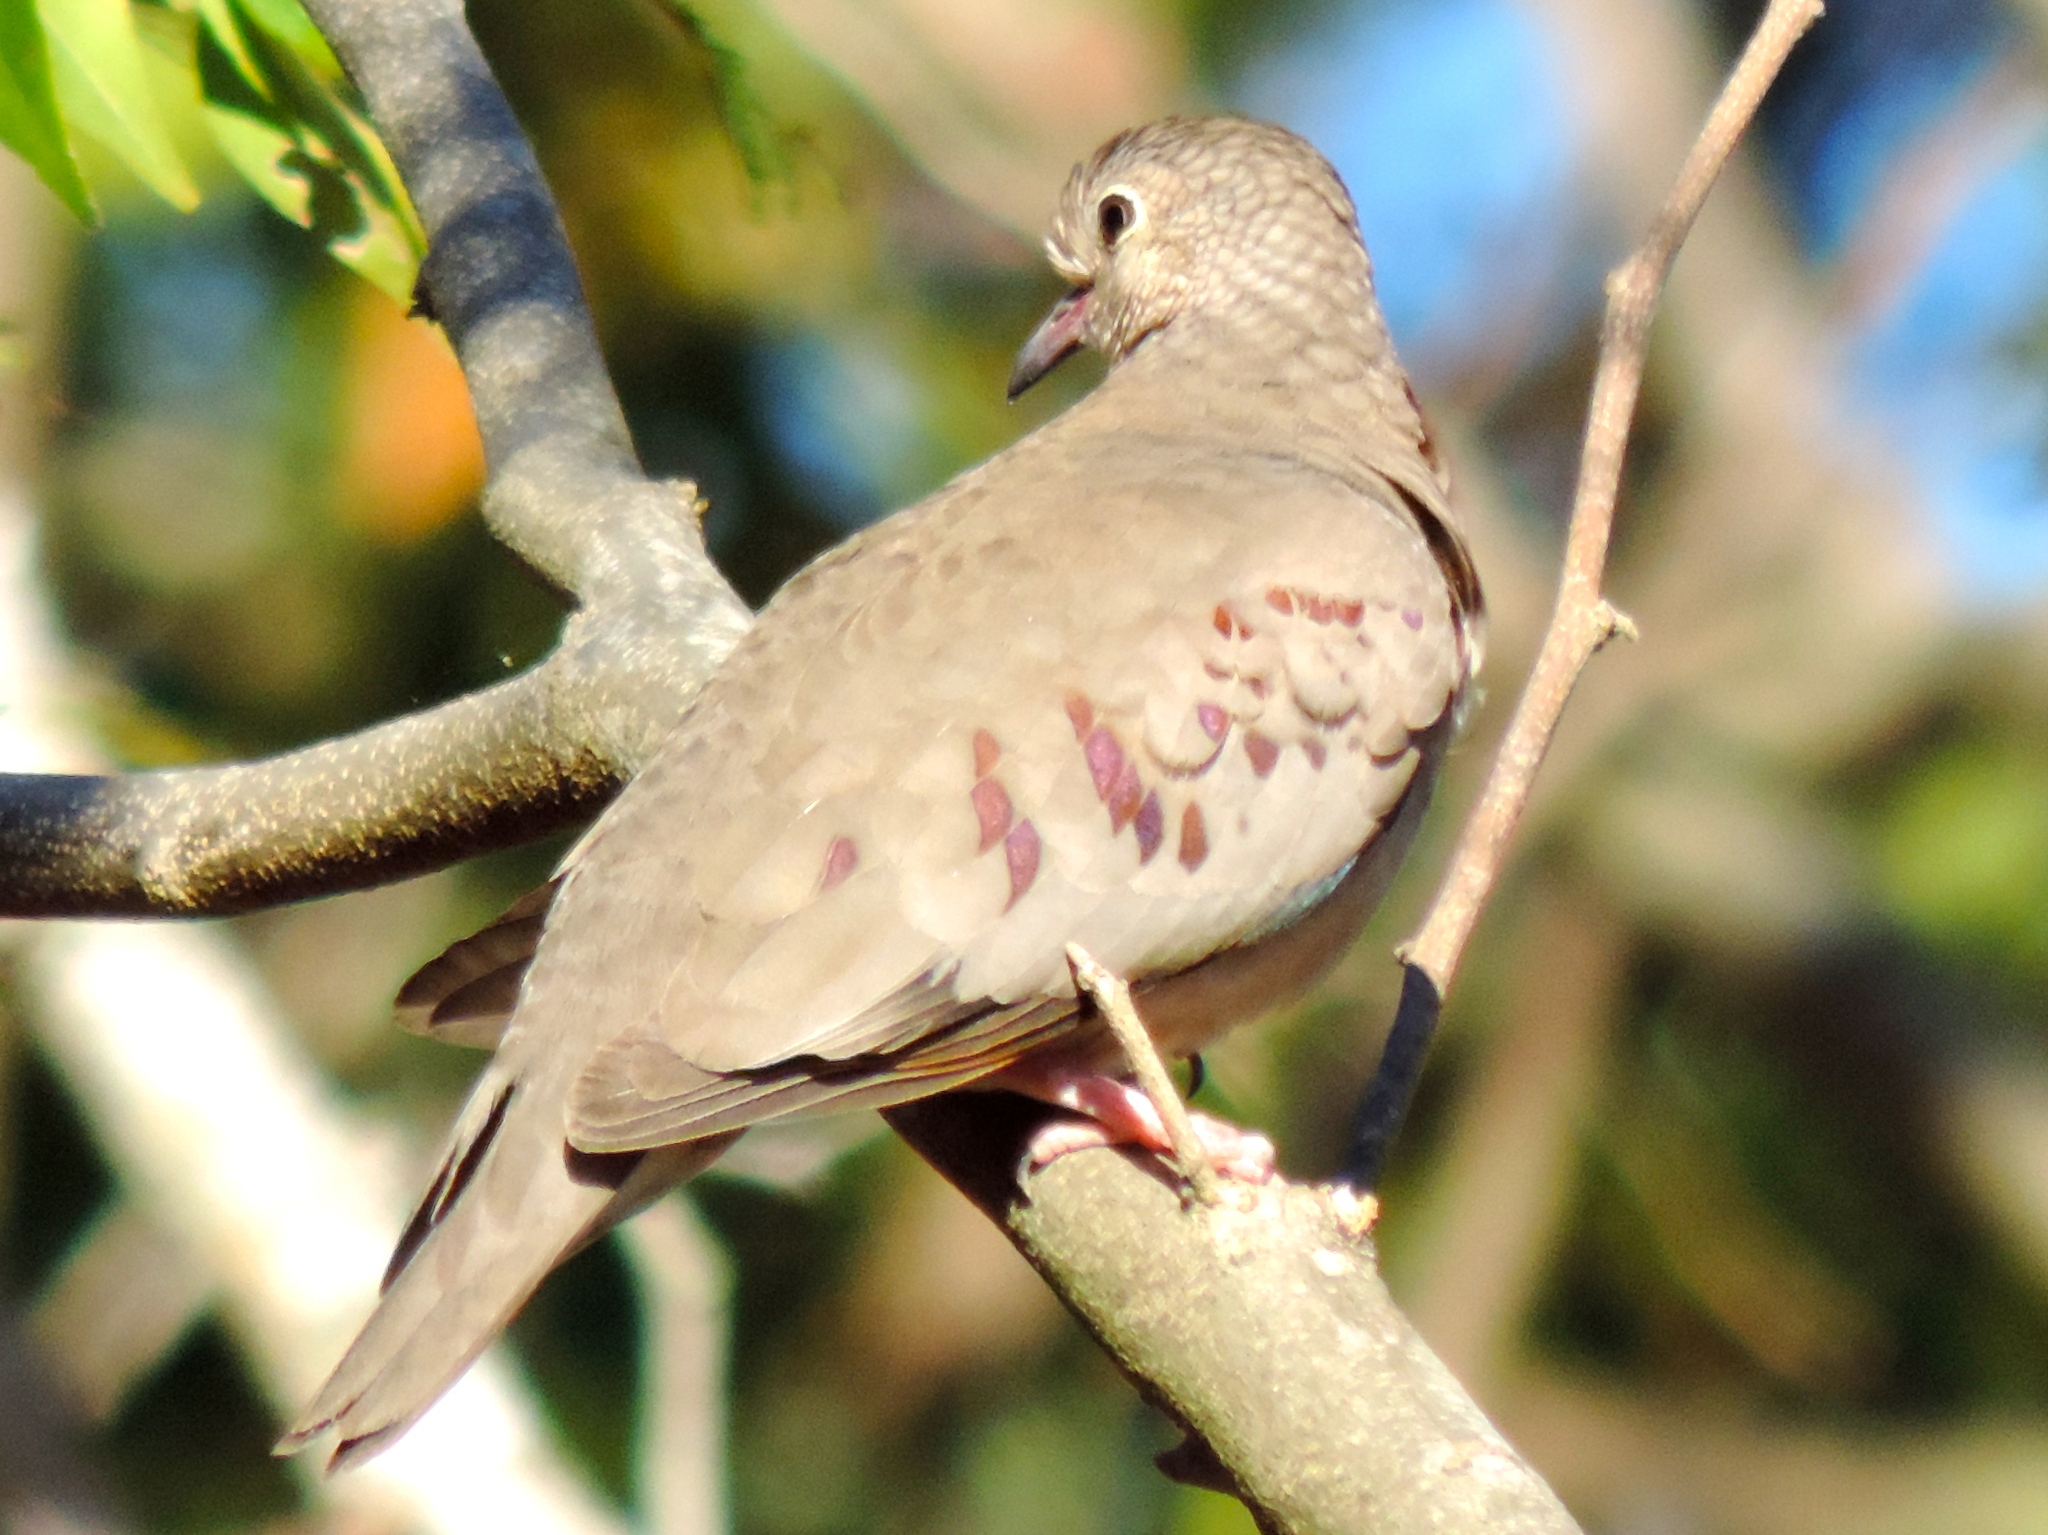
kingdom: Animalia
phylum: Chordata
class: Aves
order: Columbiformes
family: Columbidae
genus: Columbina
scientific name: Columbina passerina
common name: Common ground-dove
